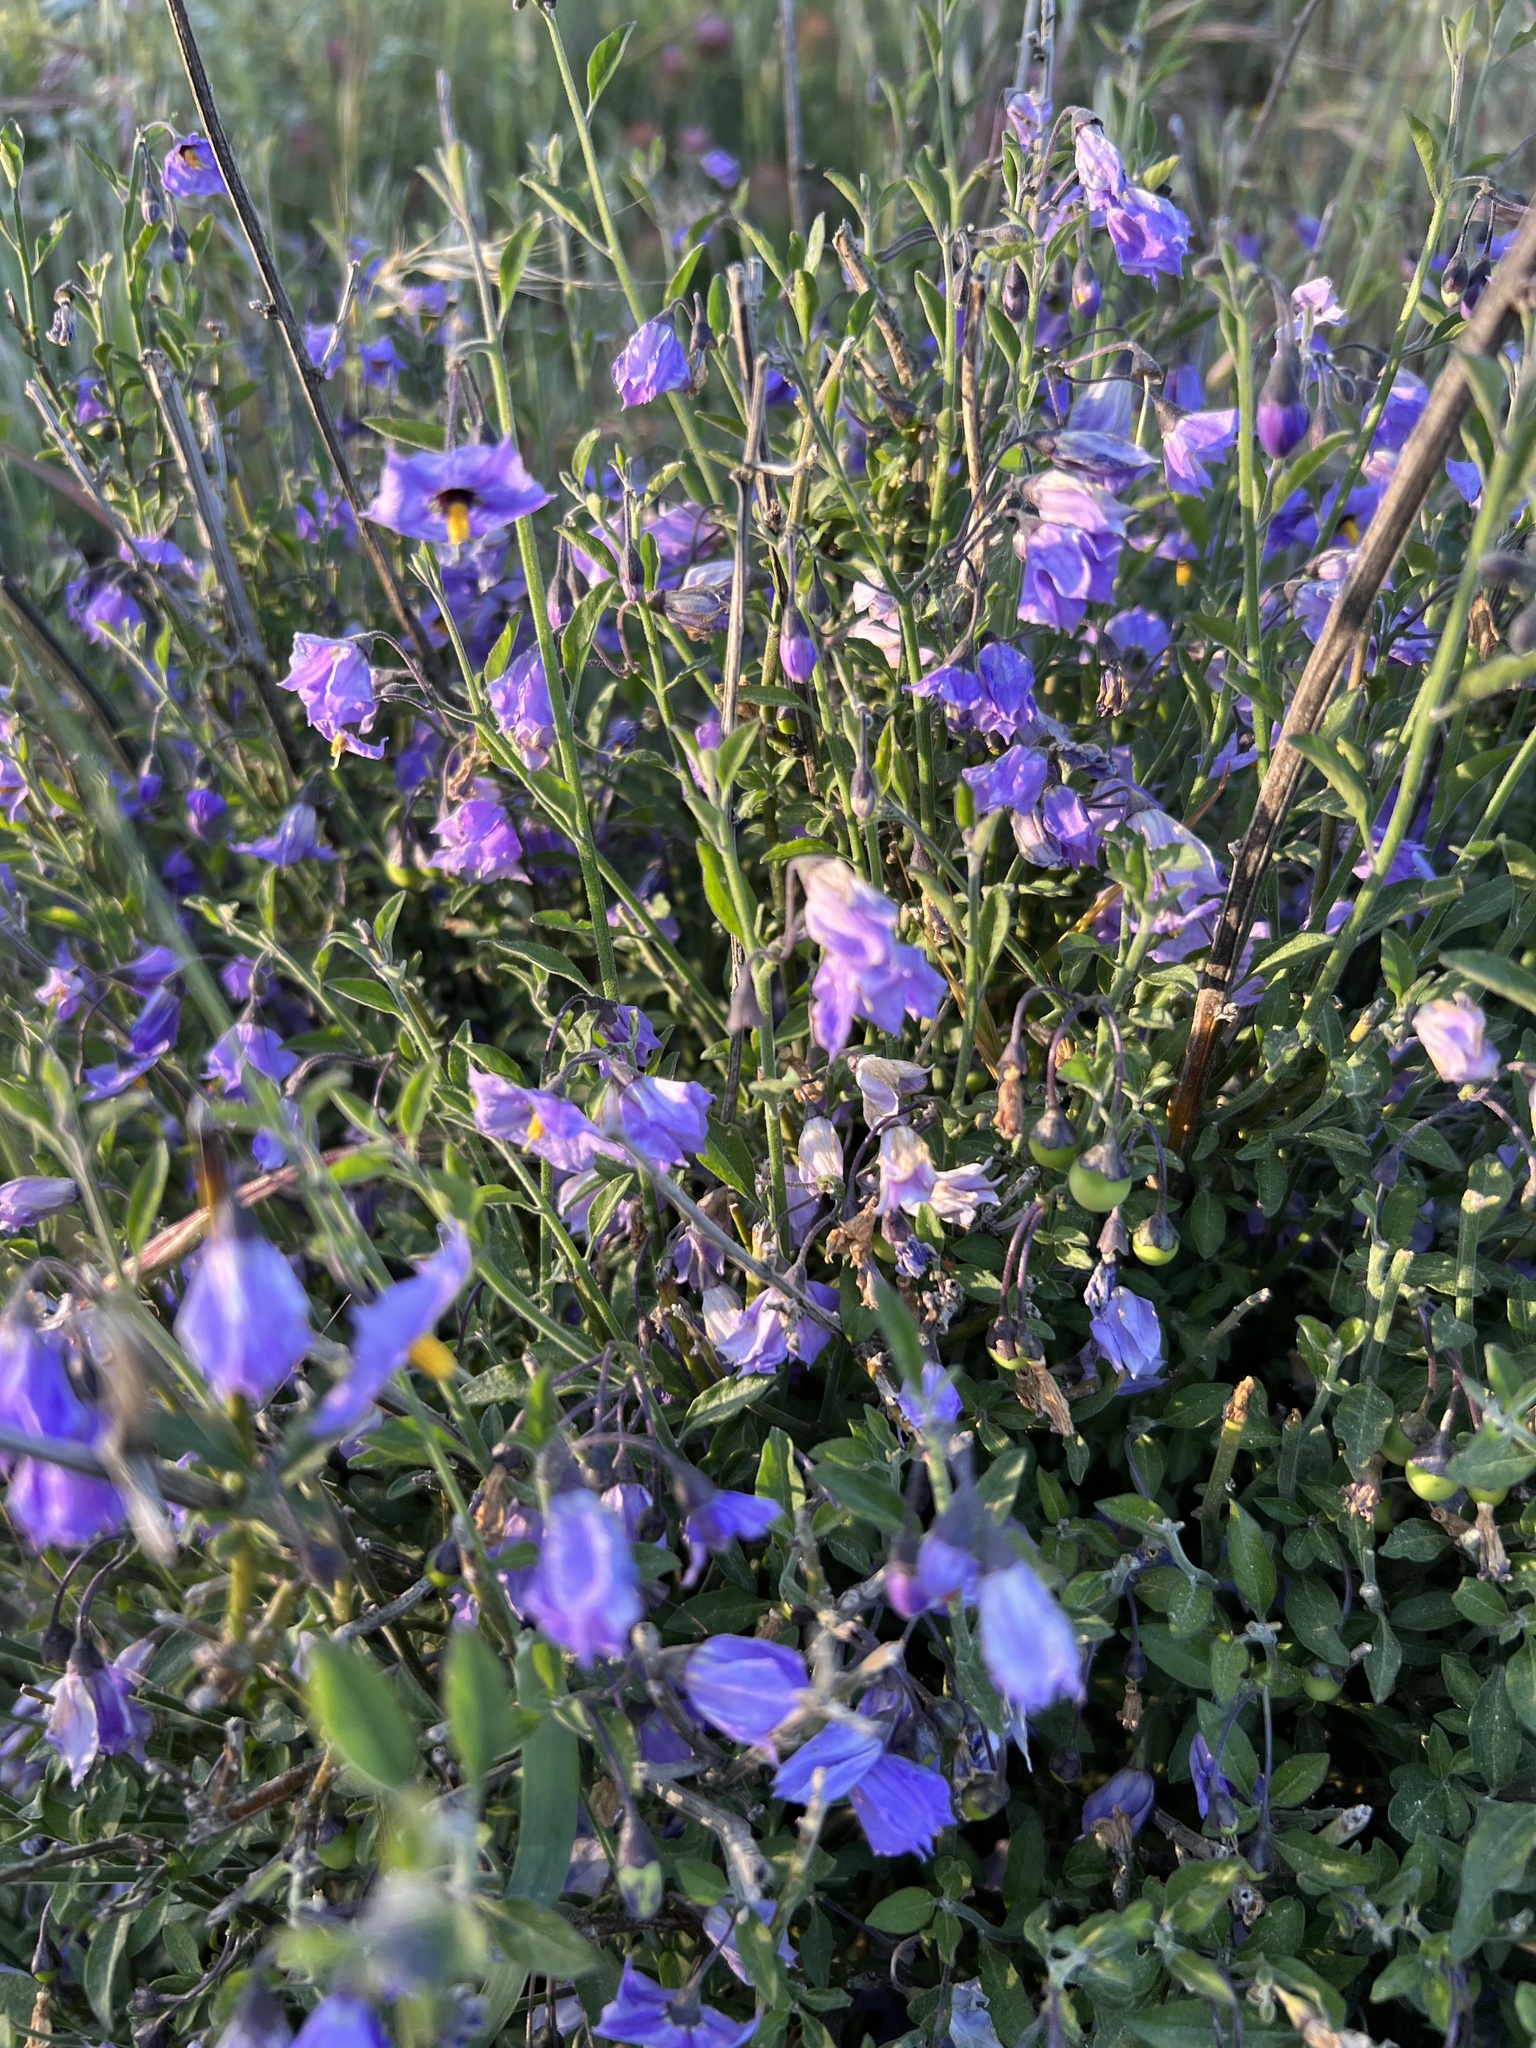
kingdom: Plantae
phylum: Tracheophyta
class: Magnoliopsida
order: Solanales
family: Solanaceae
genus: Solanum
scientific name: Solanum umbelliferum
